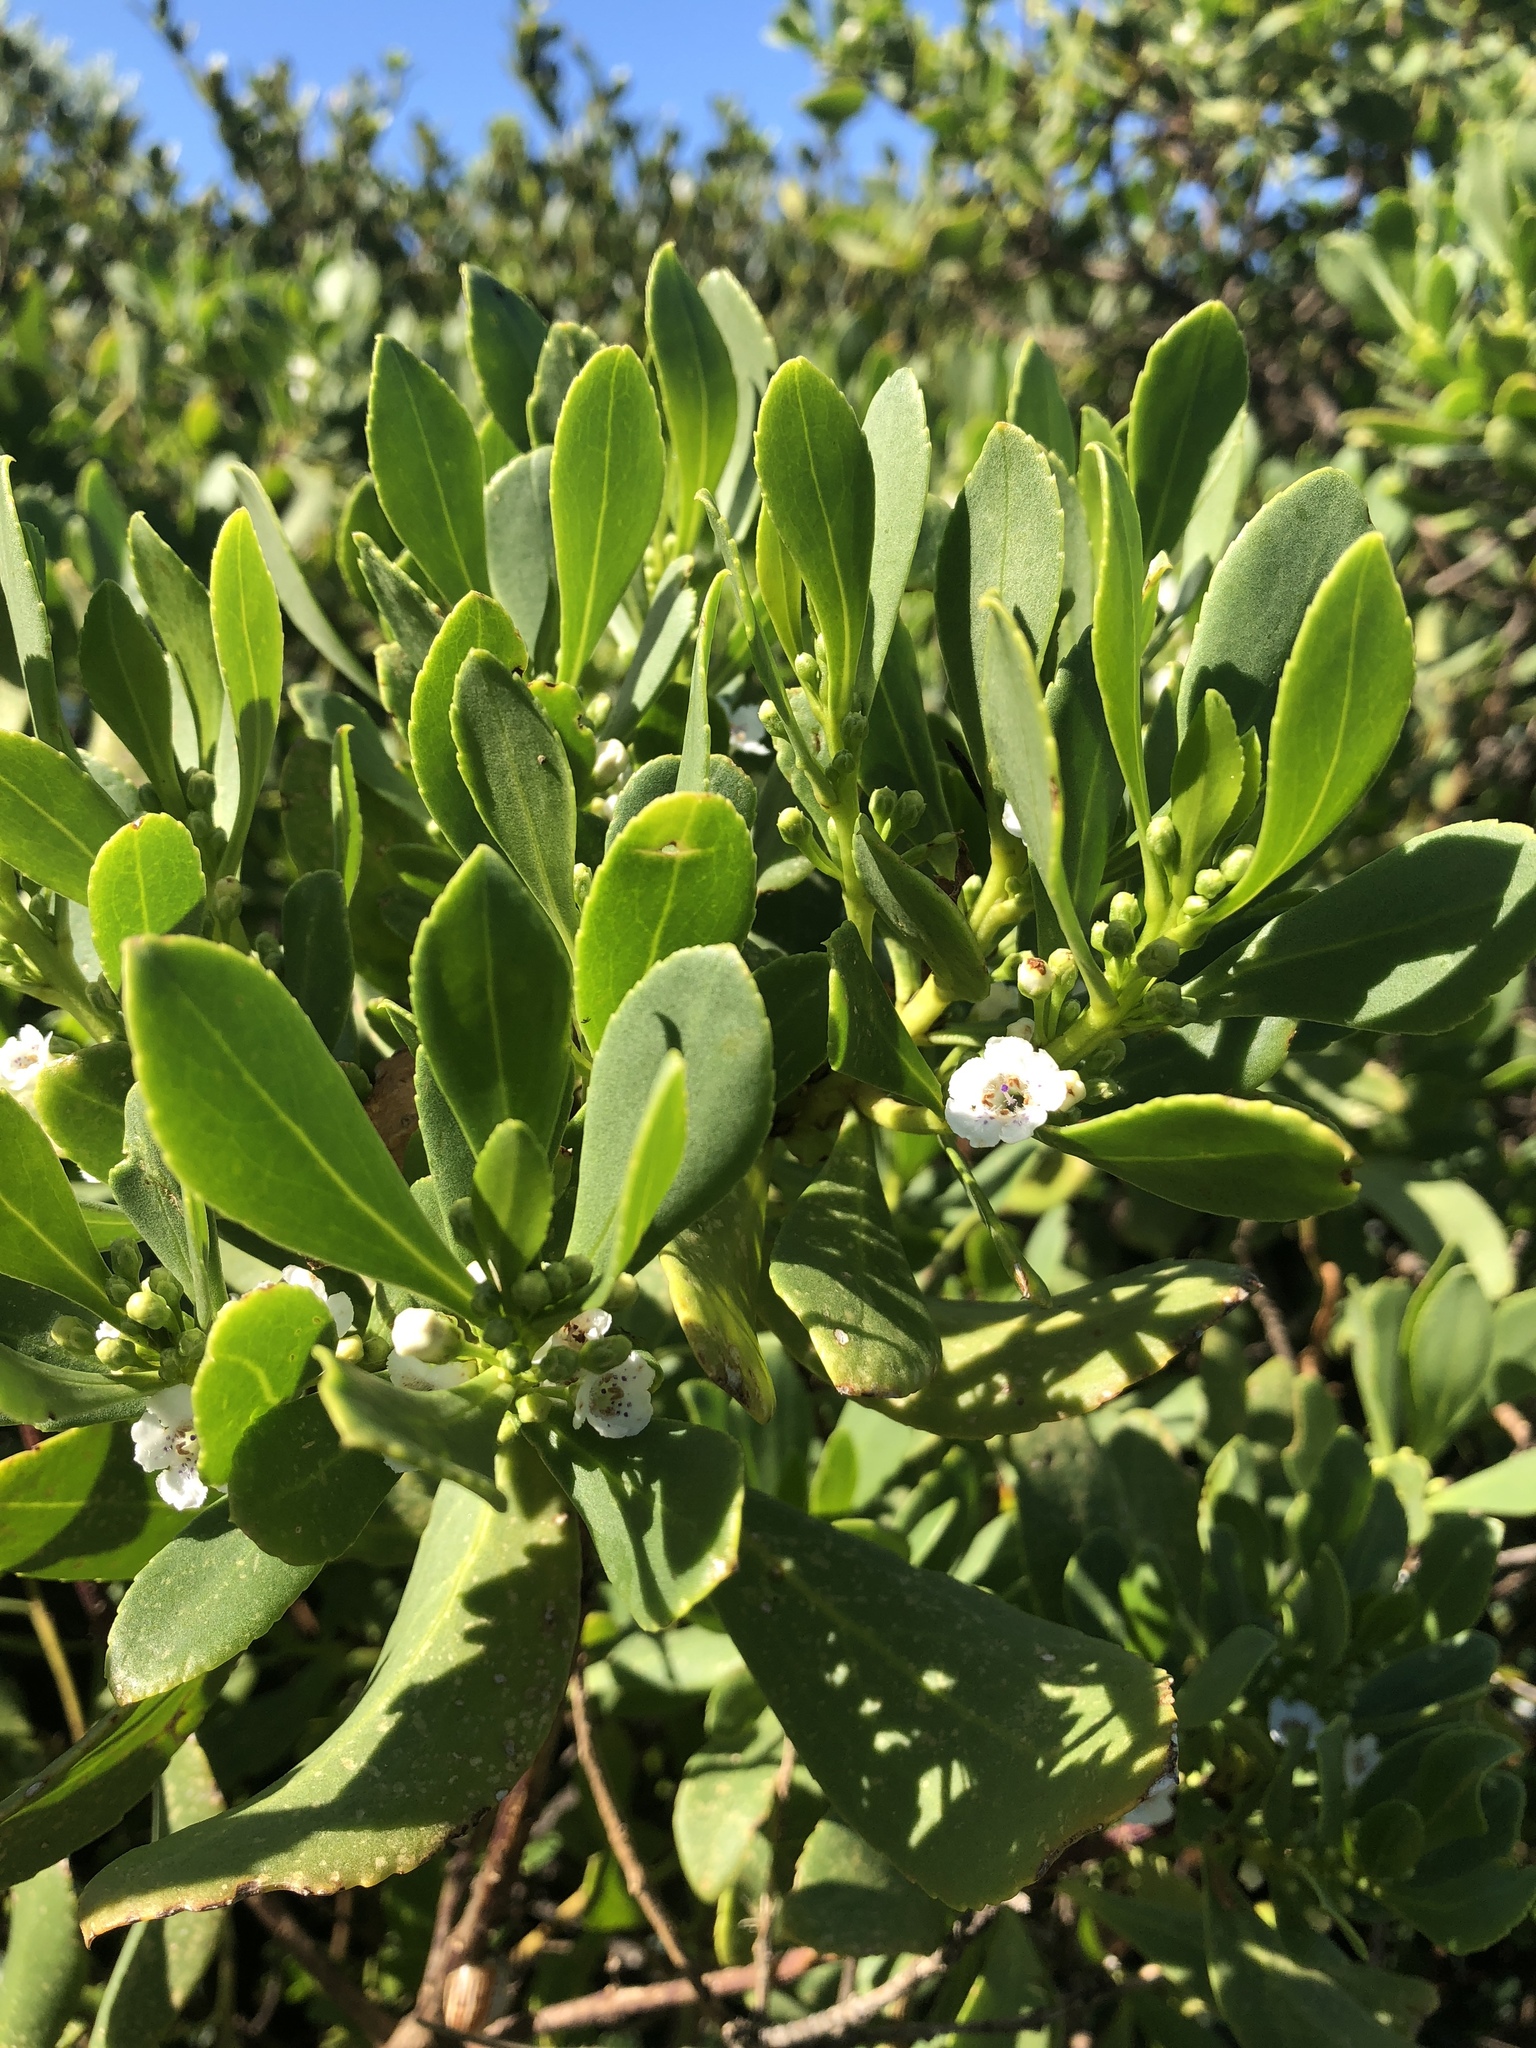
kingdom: Plantae
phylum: Tracheophyta
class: Magnoliopsida
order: Lamiales
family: Scrophulariaceae
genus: Myoporum
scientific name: Myoporum insulare
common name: Common boobialla
